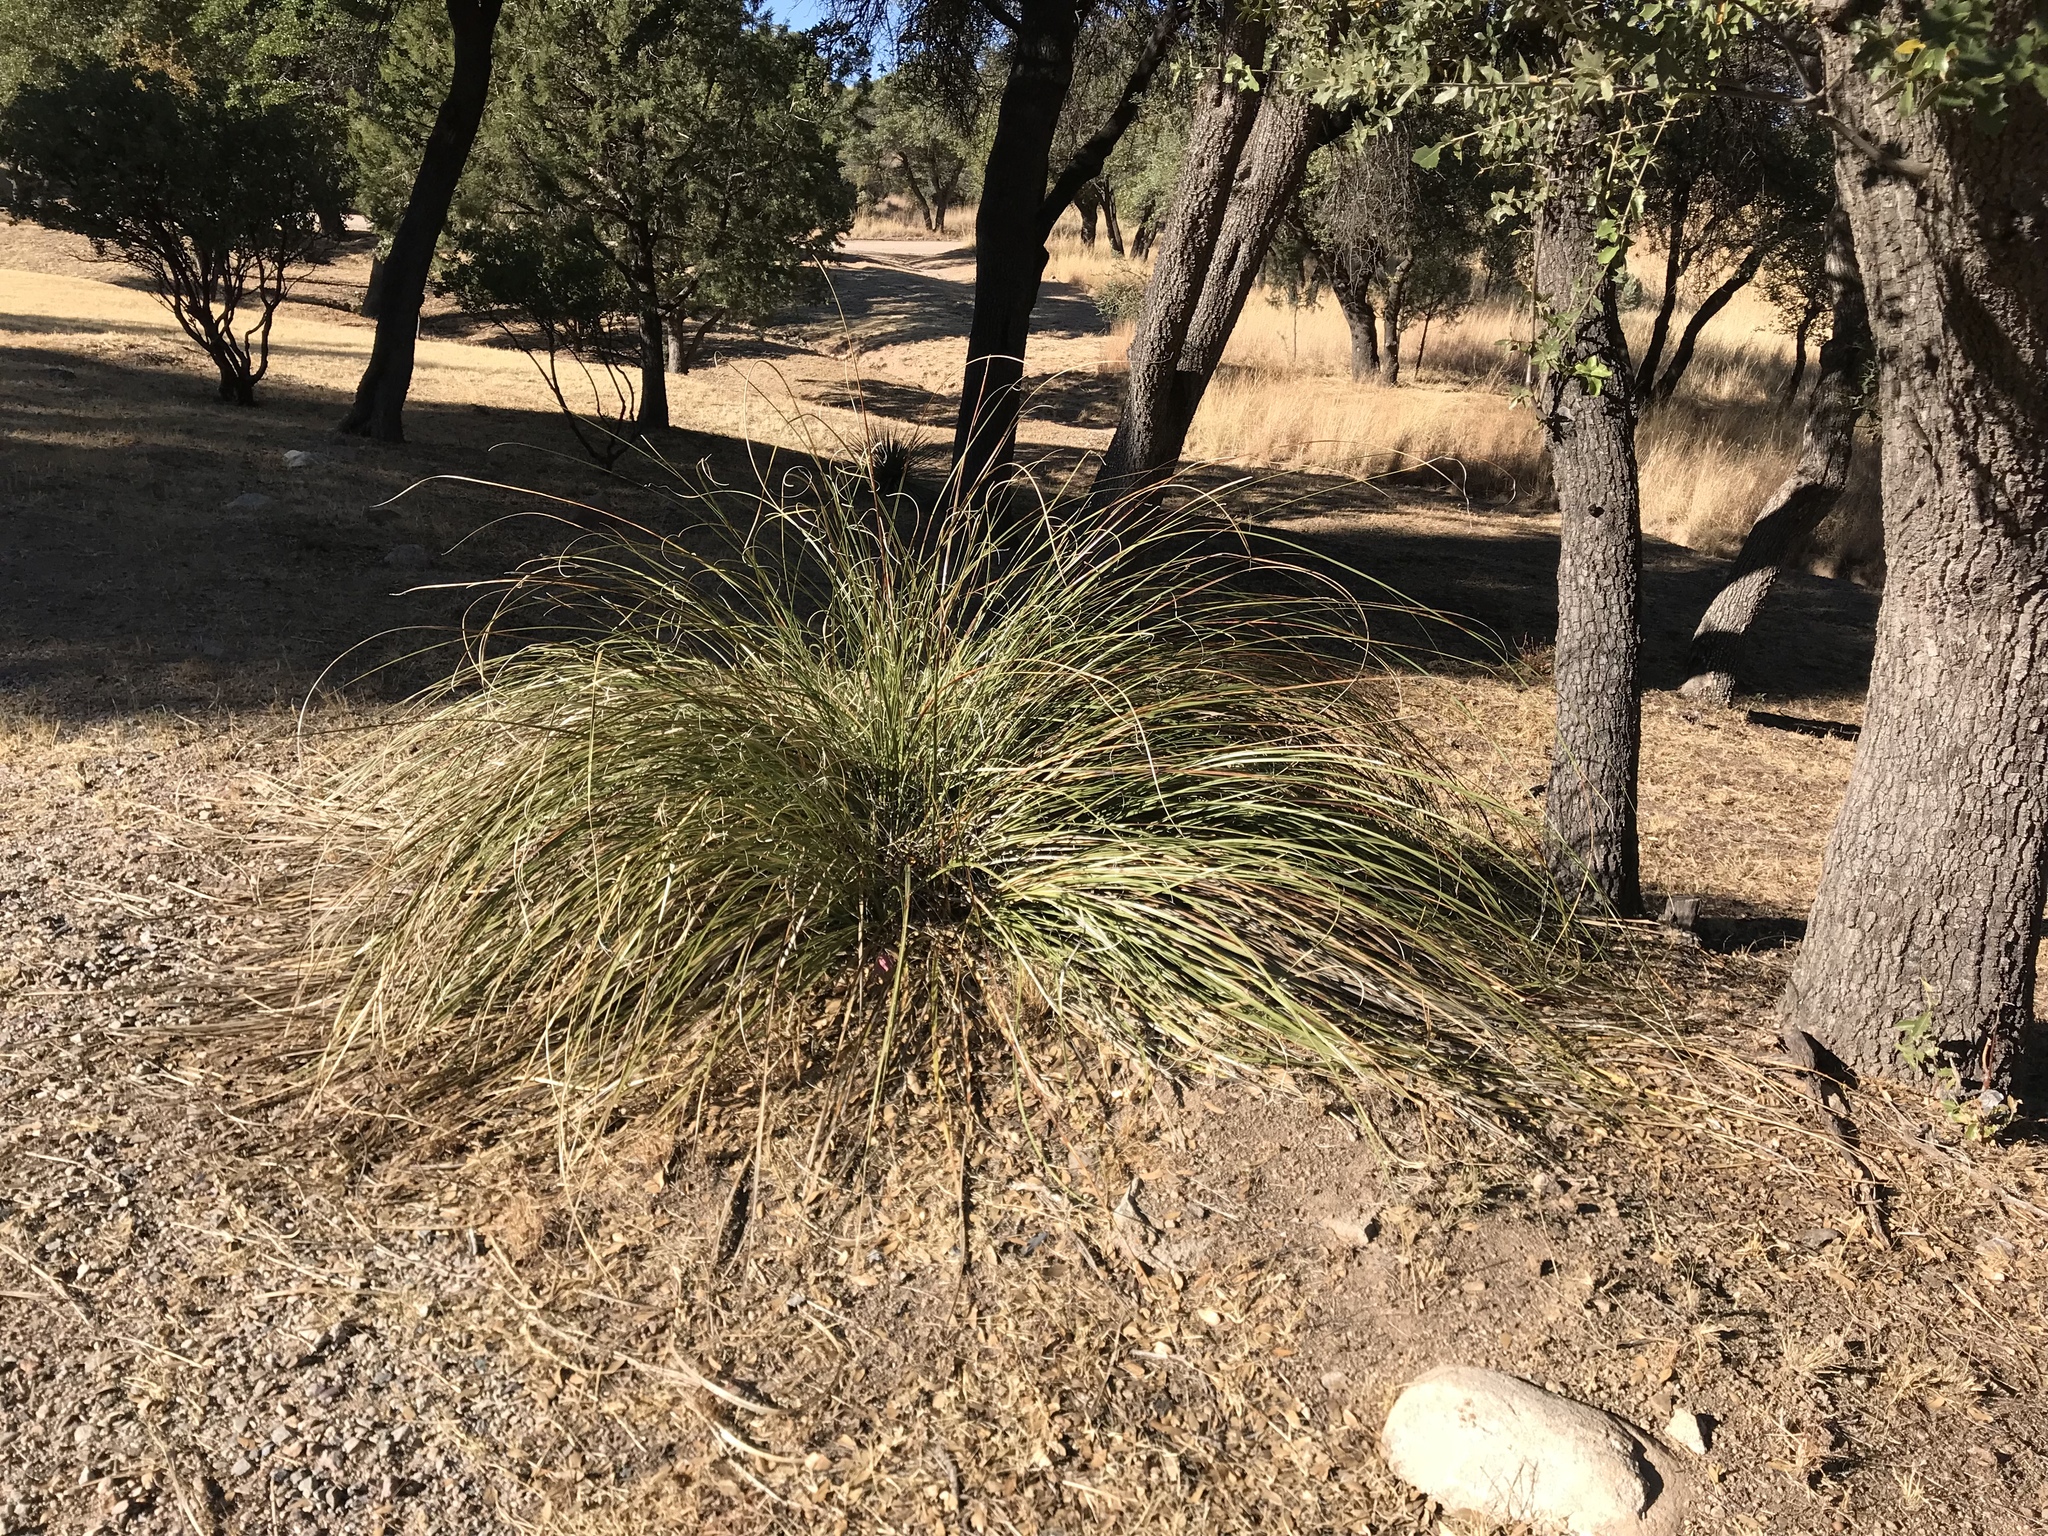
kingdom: Plantae
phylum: Tracheophyta
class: Liliopsida
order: Asparagales
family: Asparagaceae
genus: Nolina
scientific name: Nolina microcarpa
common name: Bear-grass
